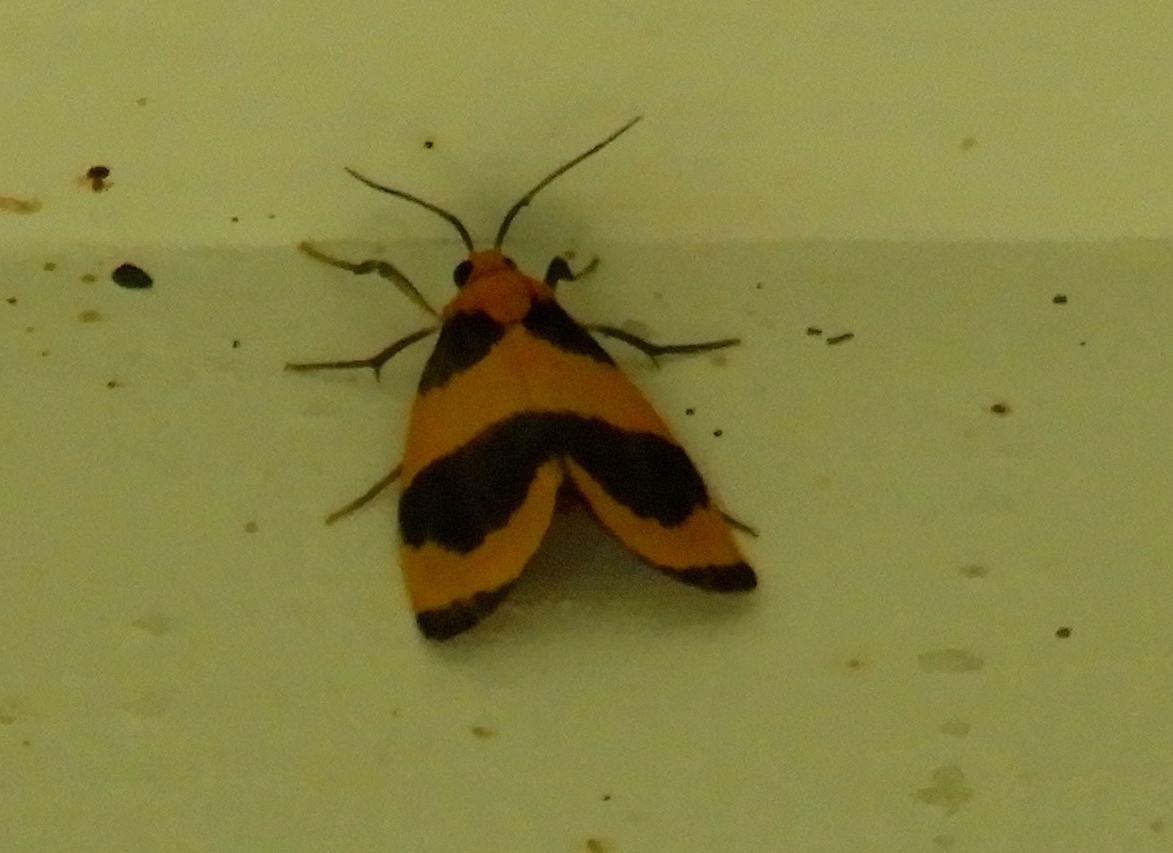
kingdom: Animalia
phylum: Arthropoda
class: Insecta
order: Lepidoptera
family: Erebidae
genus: Eudesmia
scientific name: Eudesmia prusias
